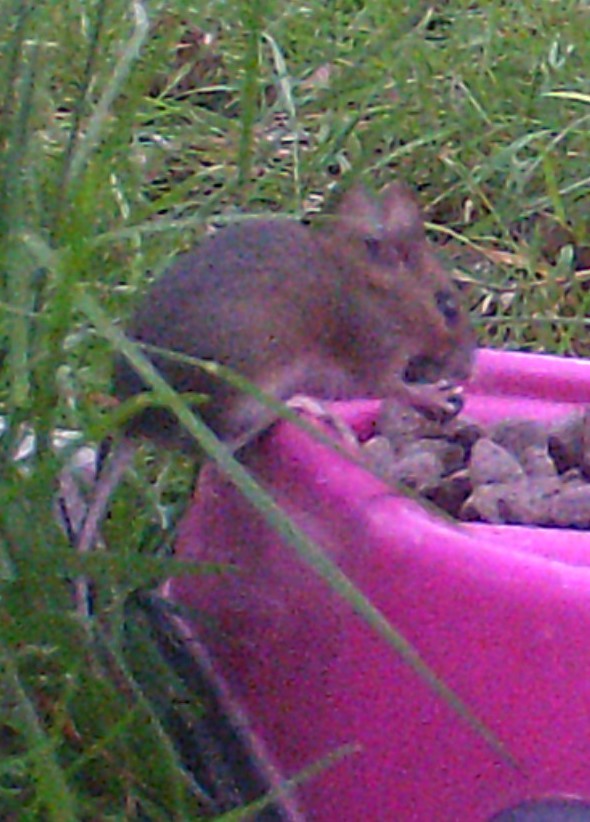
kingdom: Animalia
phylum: Chordata
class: Mammalia
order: Rodentia
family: Muridae
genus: Apodemus
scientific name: Apodemus sylvaticus
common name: Wood mouse
